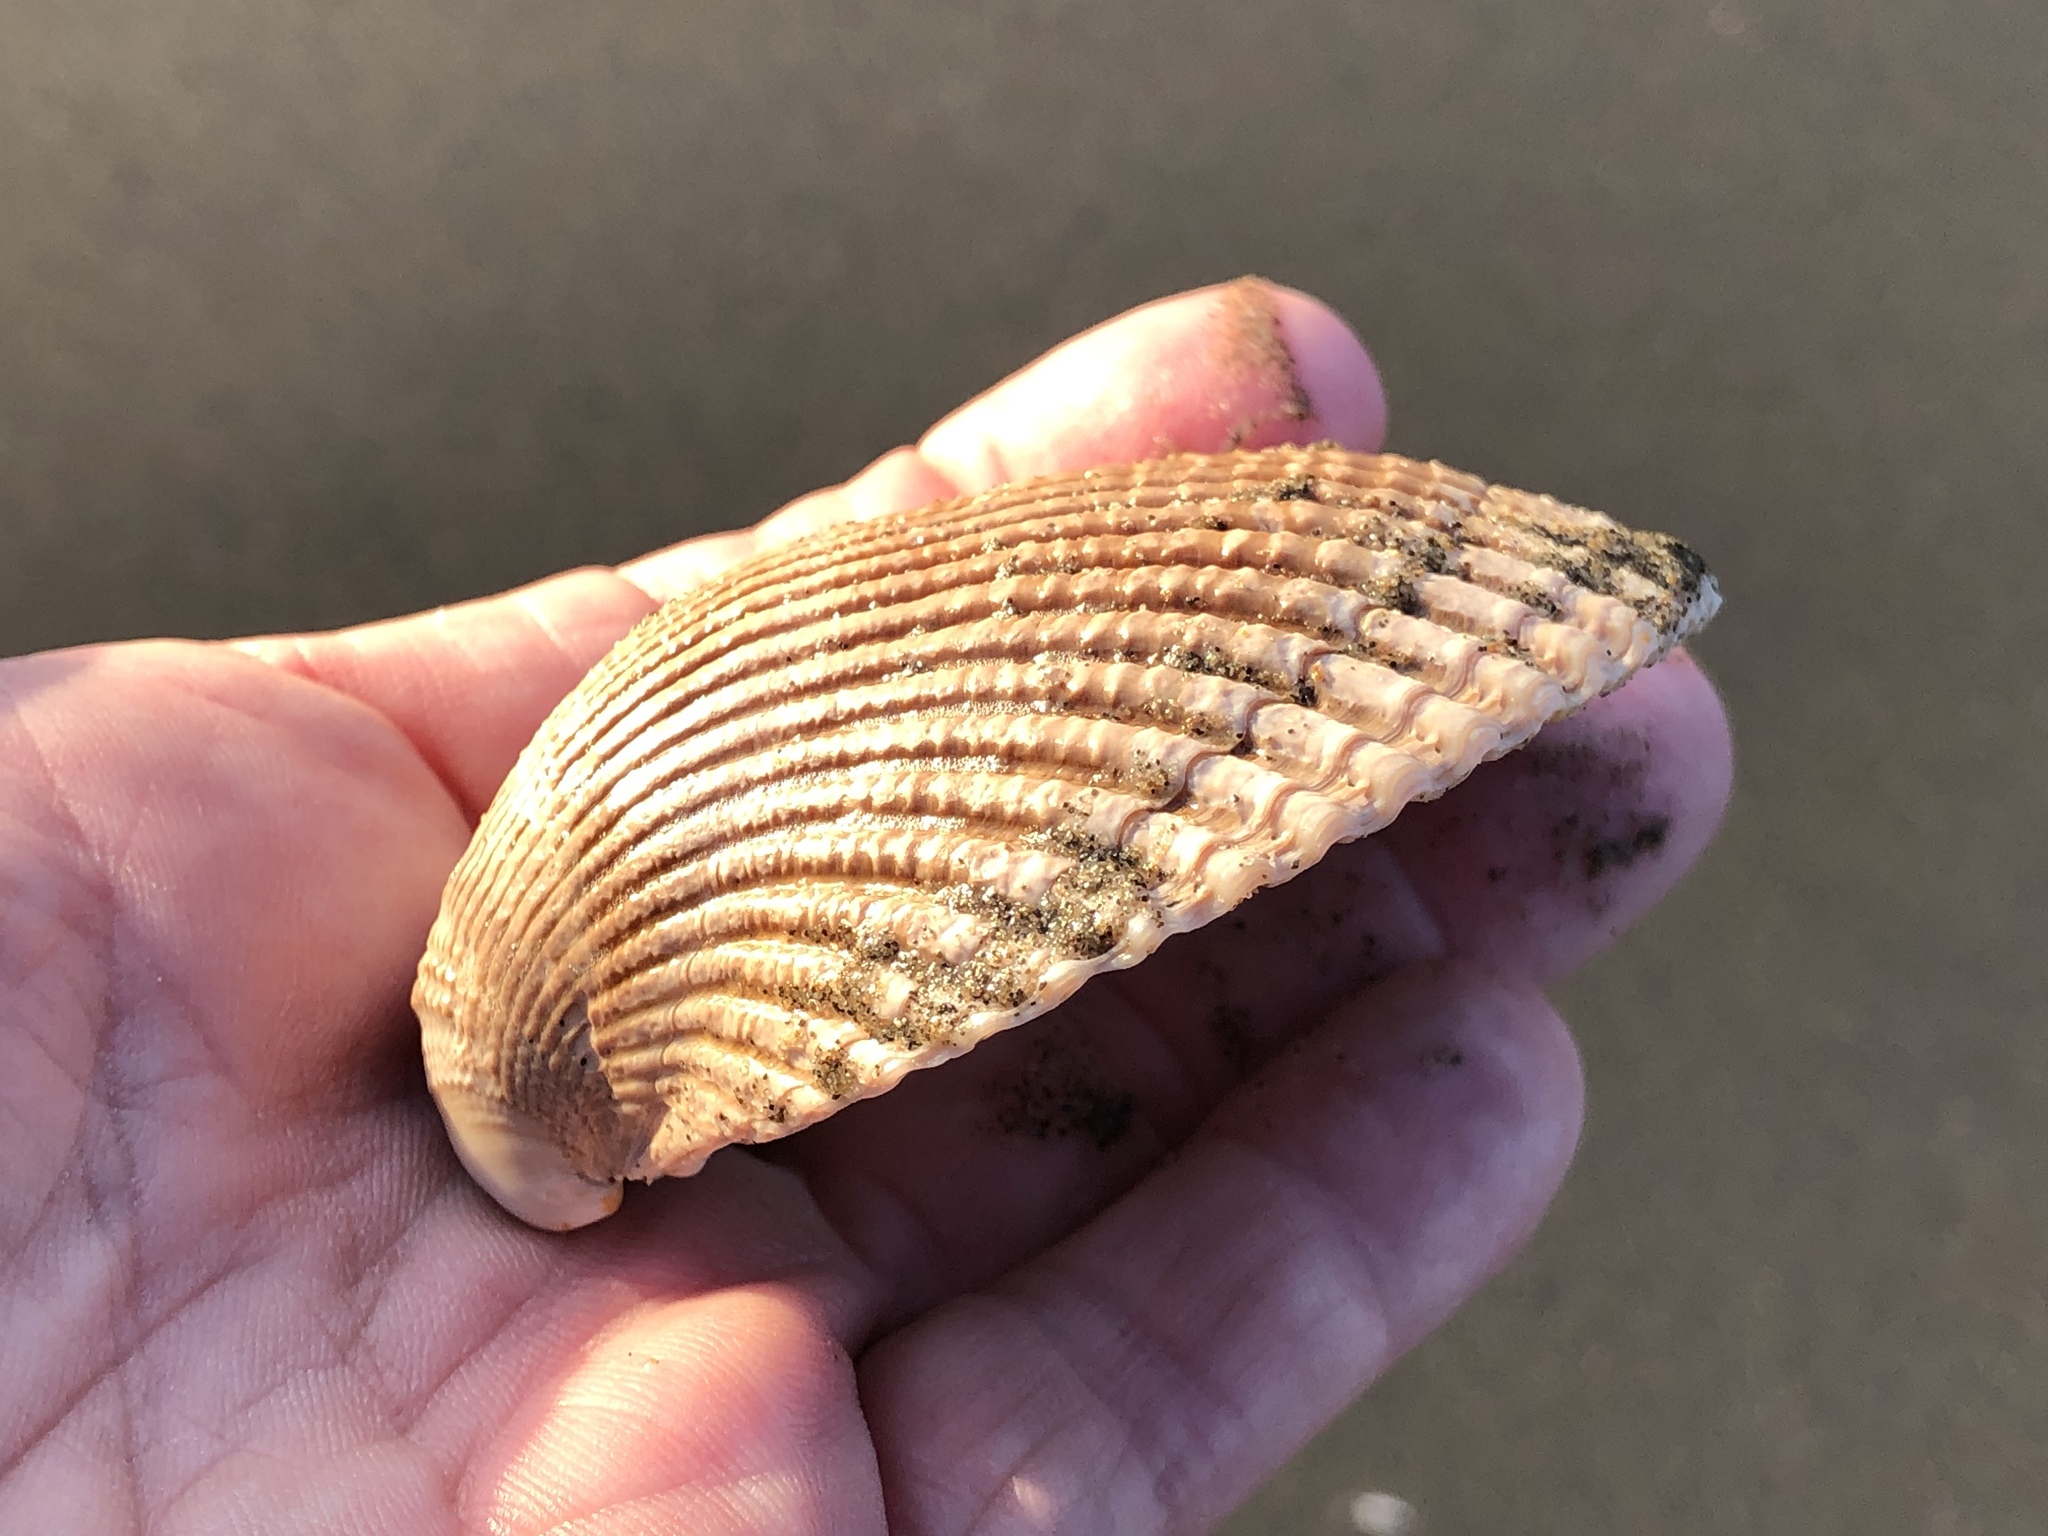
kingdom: Animalia
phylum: Mollusca
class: Bivalvia
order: Cardiida
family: Cardiidae
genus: Clinocardium
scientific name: Clinocardium nuttallii
